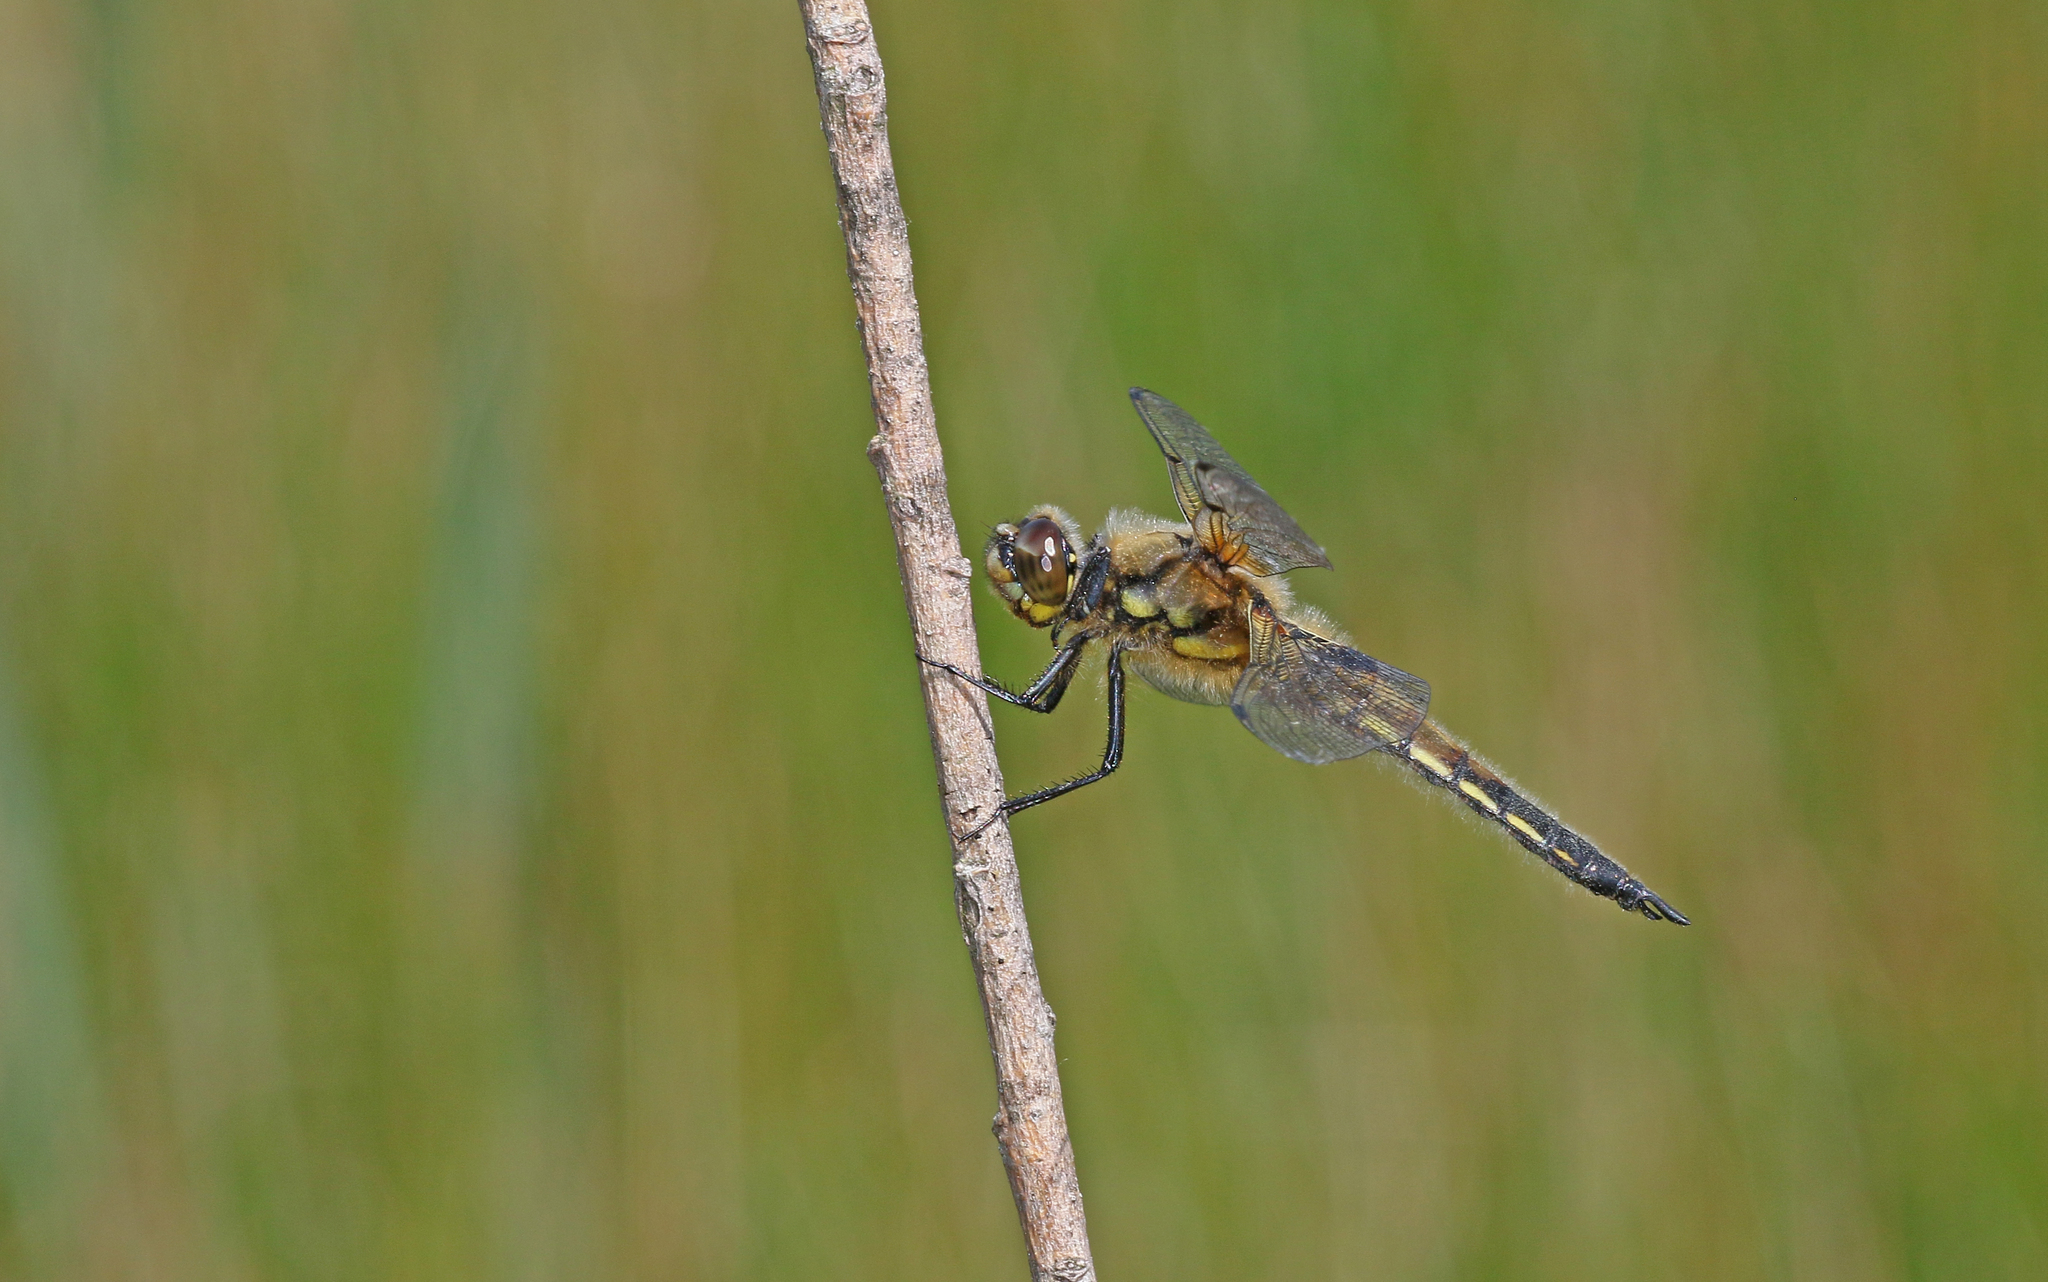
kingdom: Animalia
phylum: Arthropoda
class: Insecta
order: Odonata
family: Libellulidae
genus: Libellula
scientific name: Libellula quadrimaculata
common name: Four-spotted chaser
